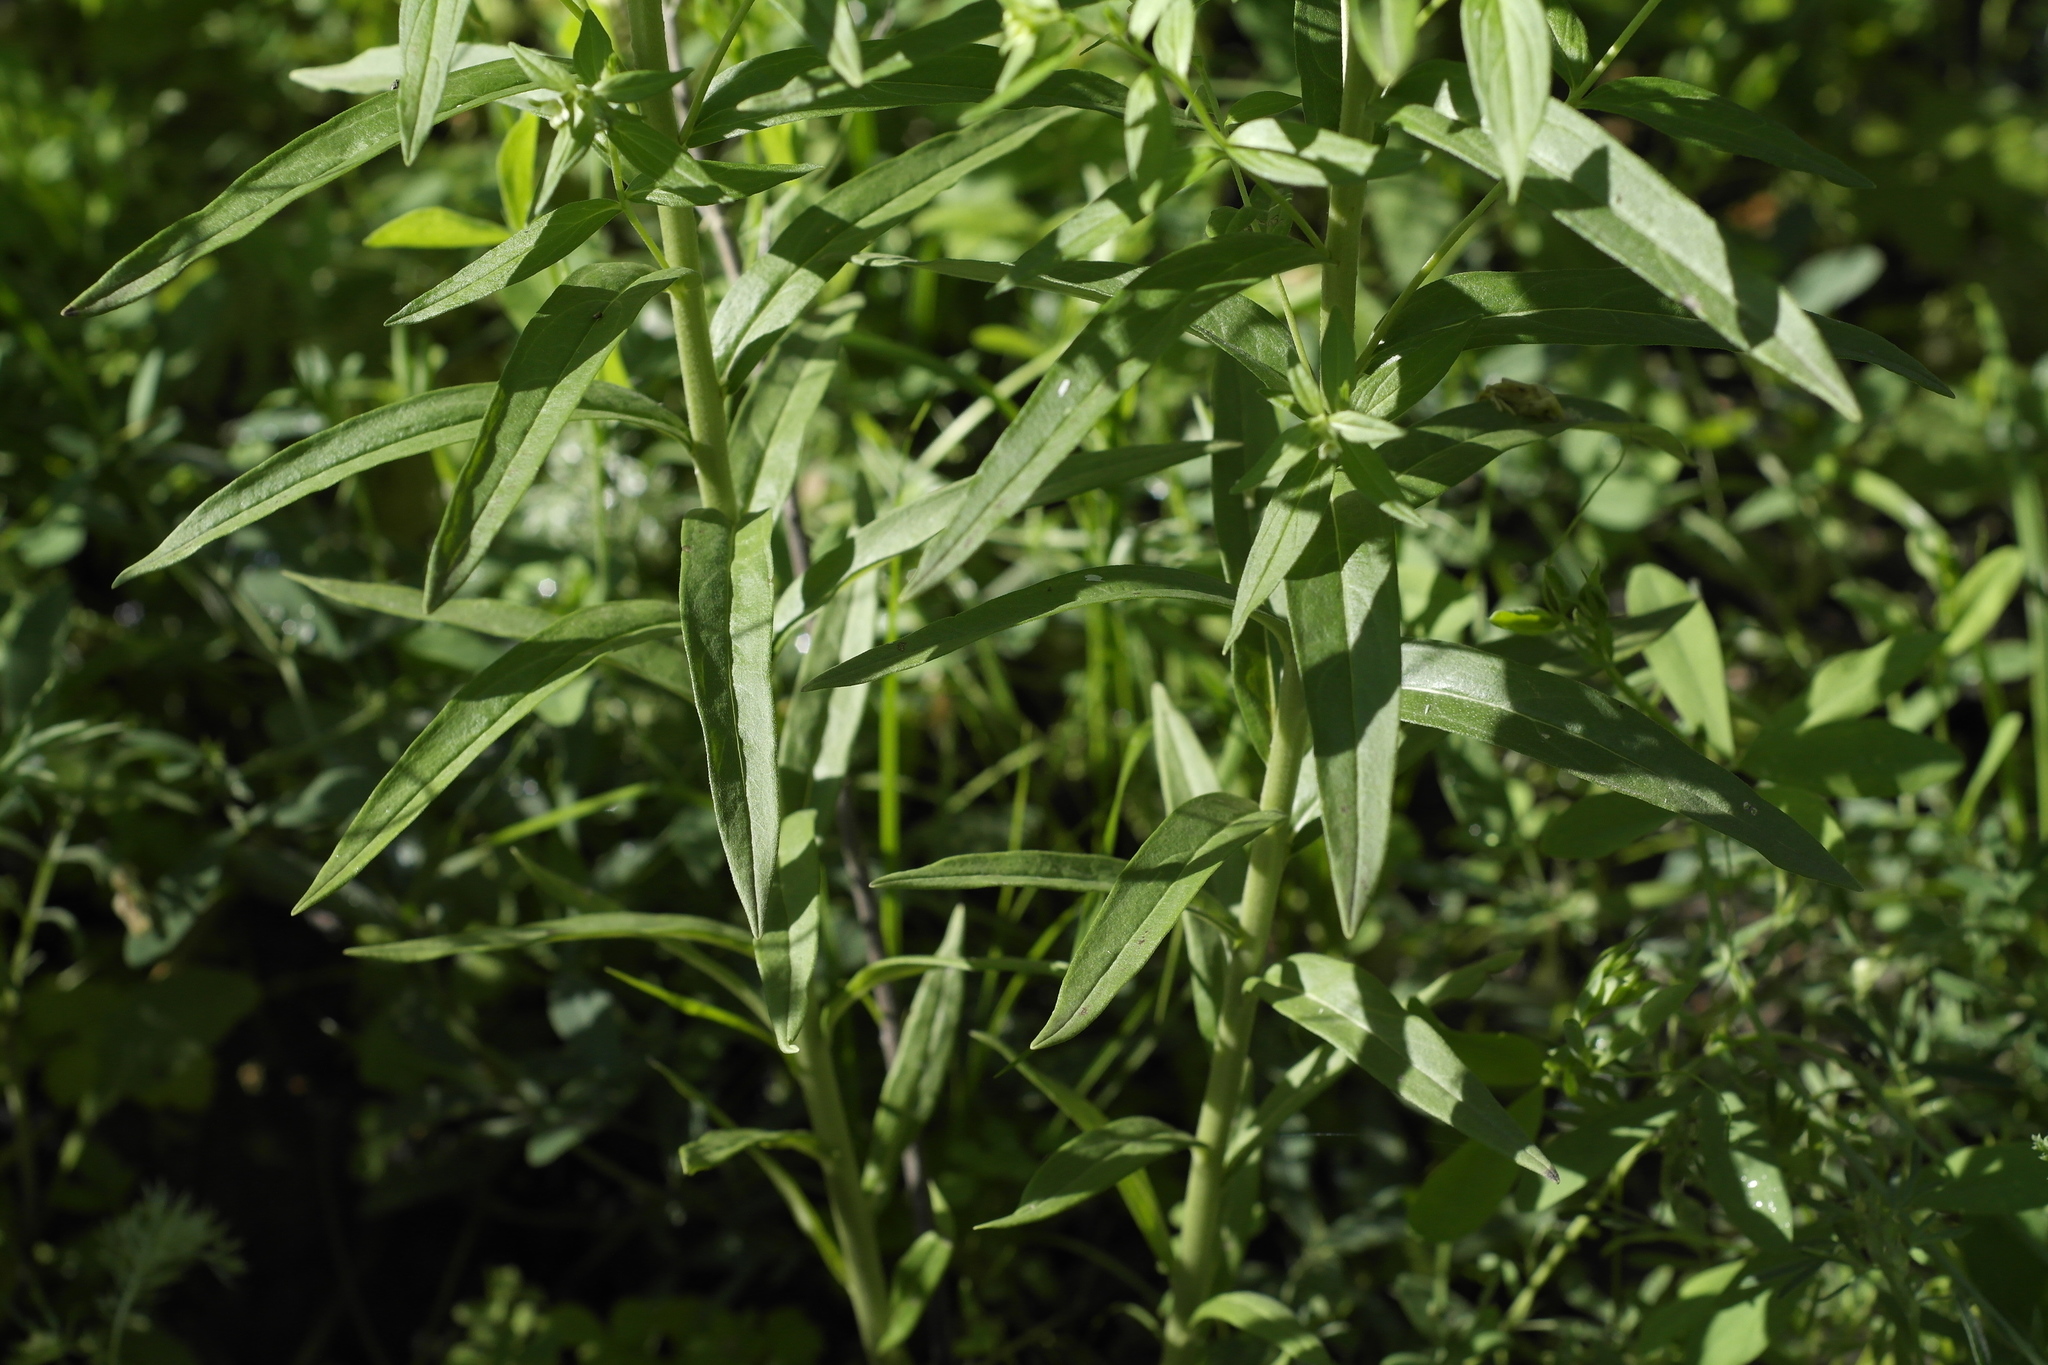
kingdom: Plantae
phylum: Tracheophyta
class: Magnoliopsida
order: Boraginales
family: Boraginaceae
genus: Lithospermum
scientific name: Lithospermum officinale
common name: Common gromwell
